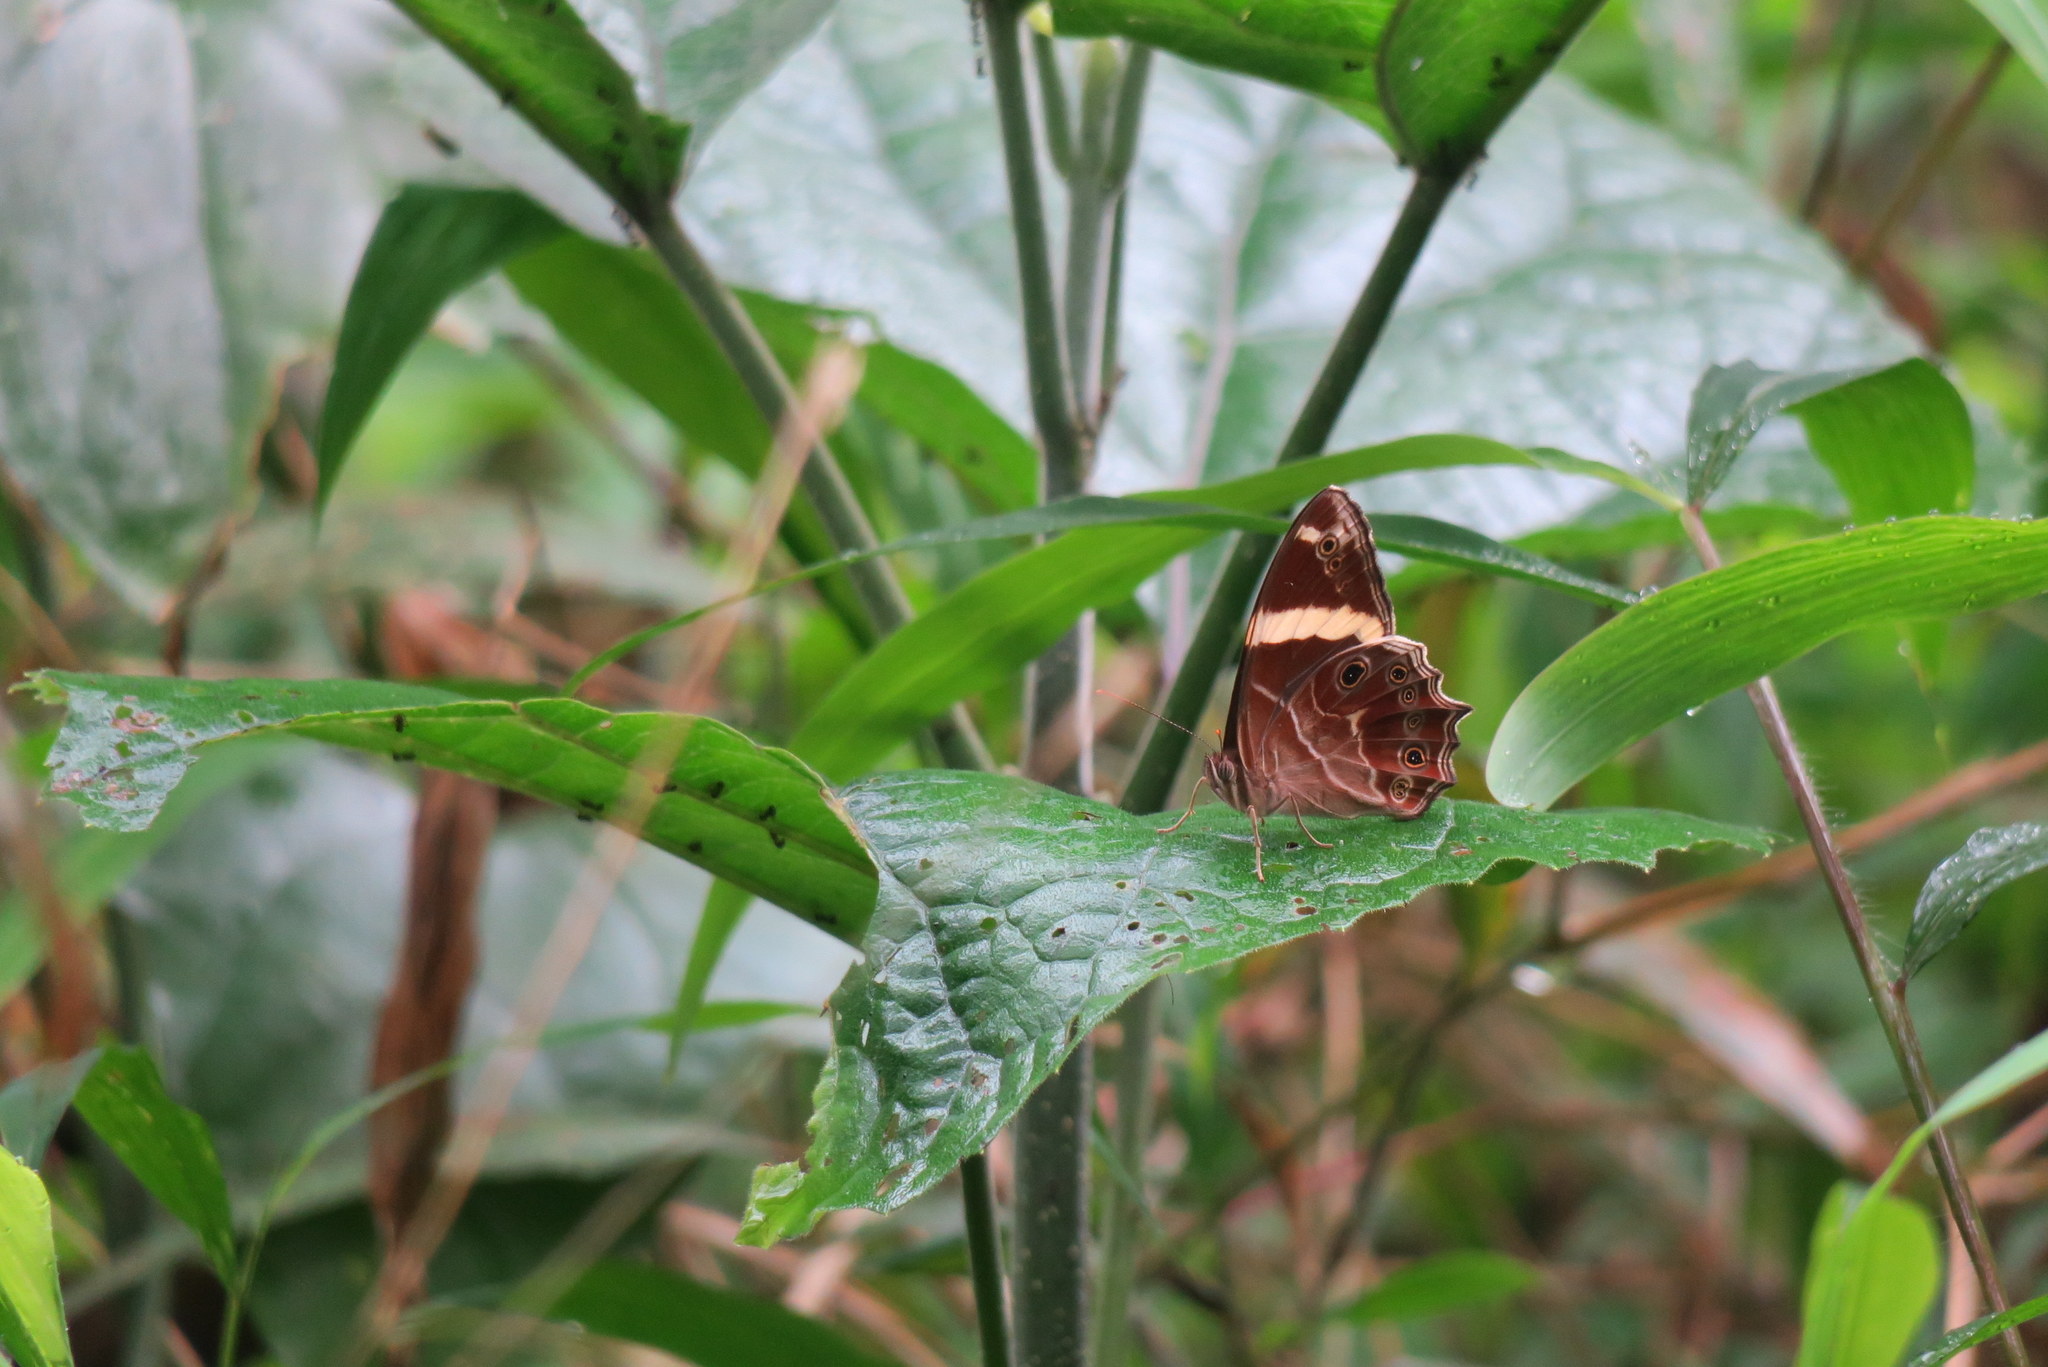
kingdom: Animalia
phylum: Arthropoda
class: Insecta
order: Lepidoptera
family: Nymphalidae
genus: Lethe
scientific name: Lethe confusa
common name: Banded treebrown
